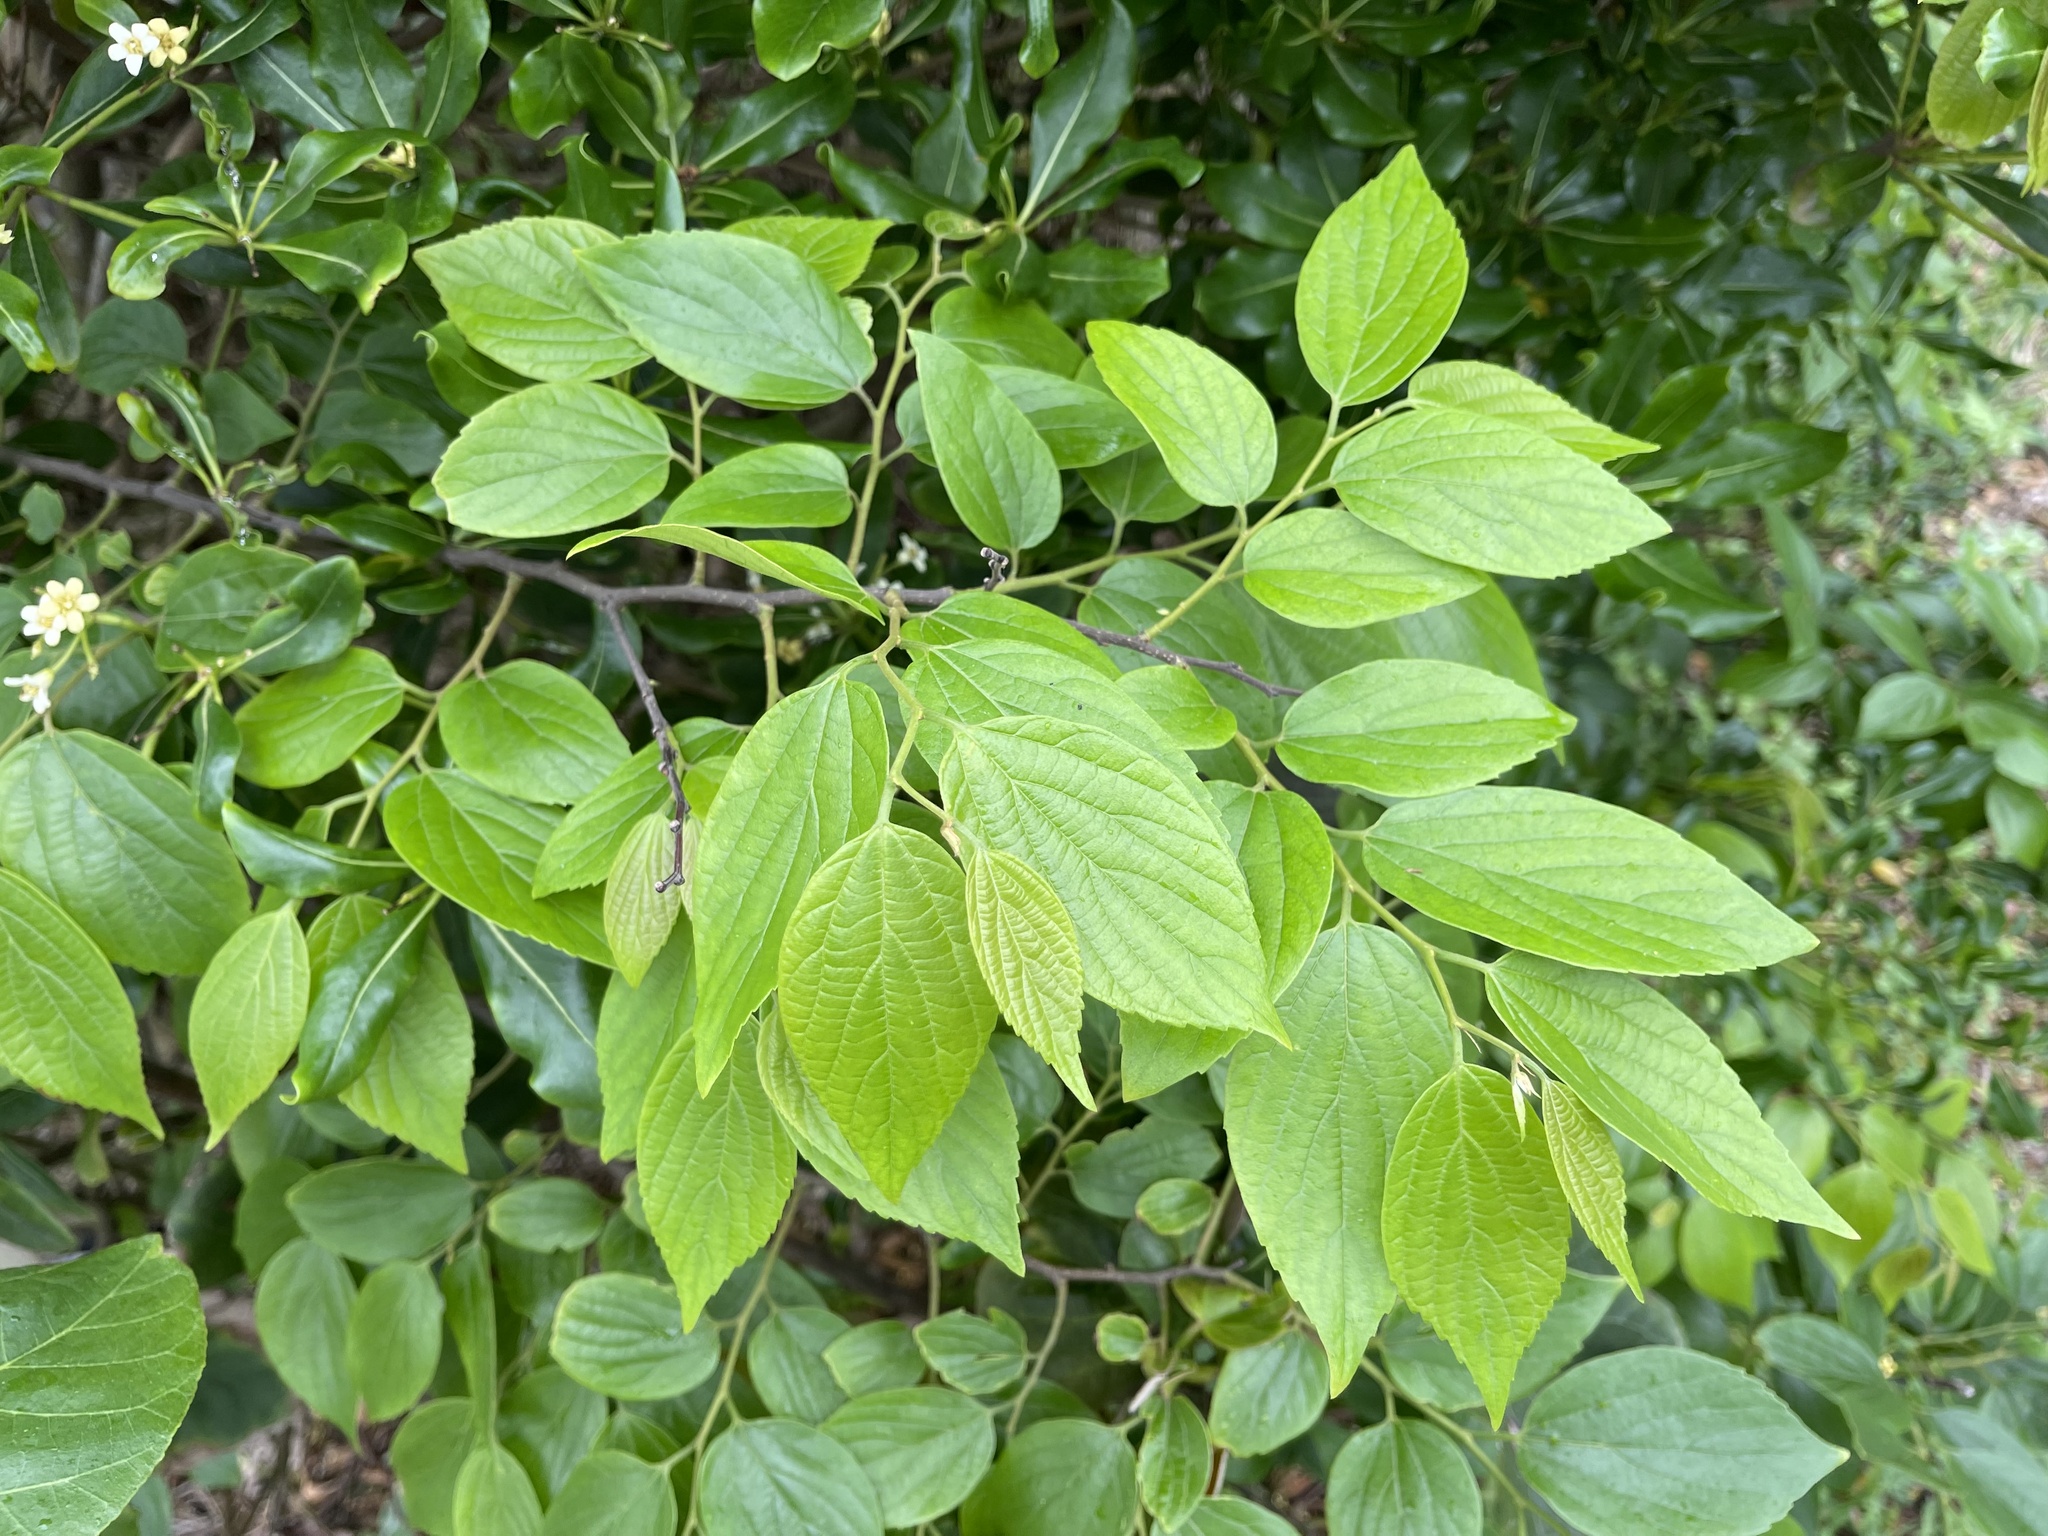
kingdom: Plantae
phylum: Tracheophyta
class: Magnoliopsida
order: Rosales
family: Cannabaceae
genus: Celtis
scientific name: Celtis sinensis
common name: Chinese hackberry
